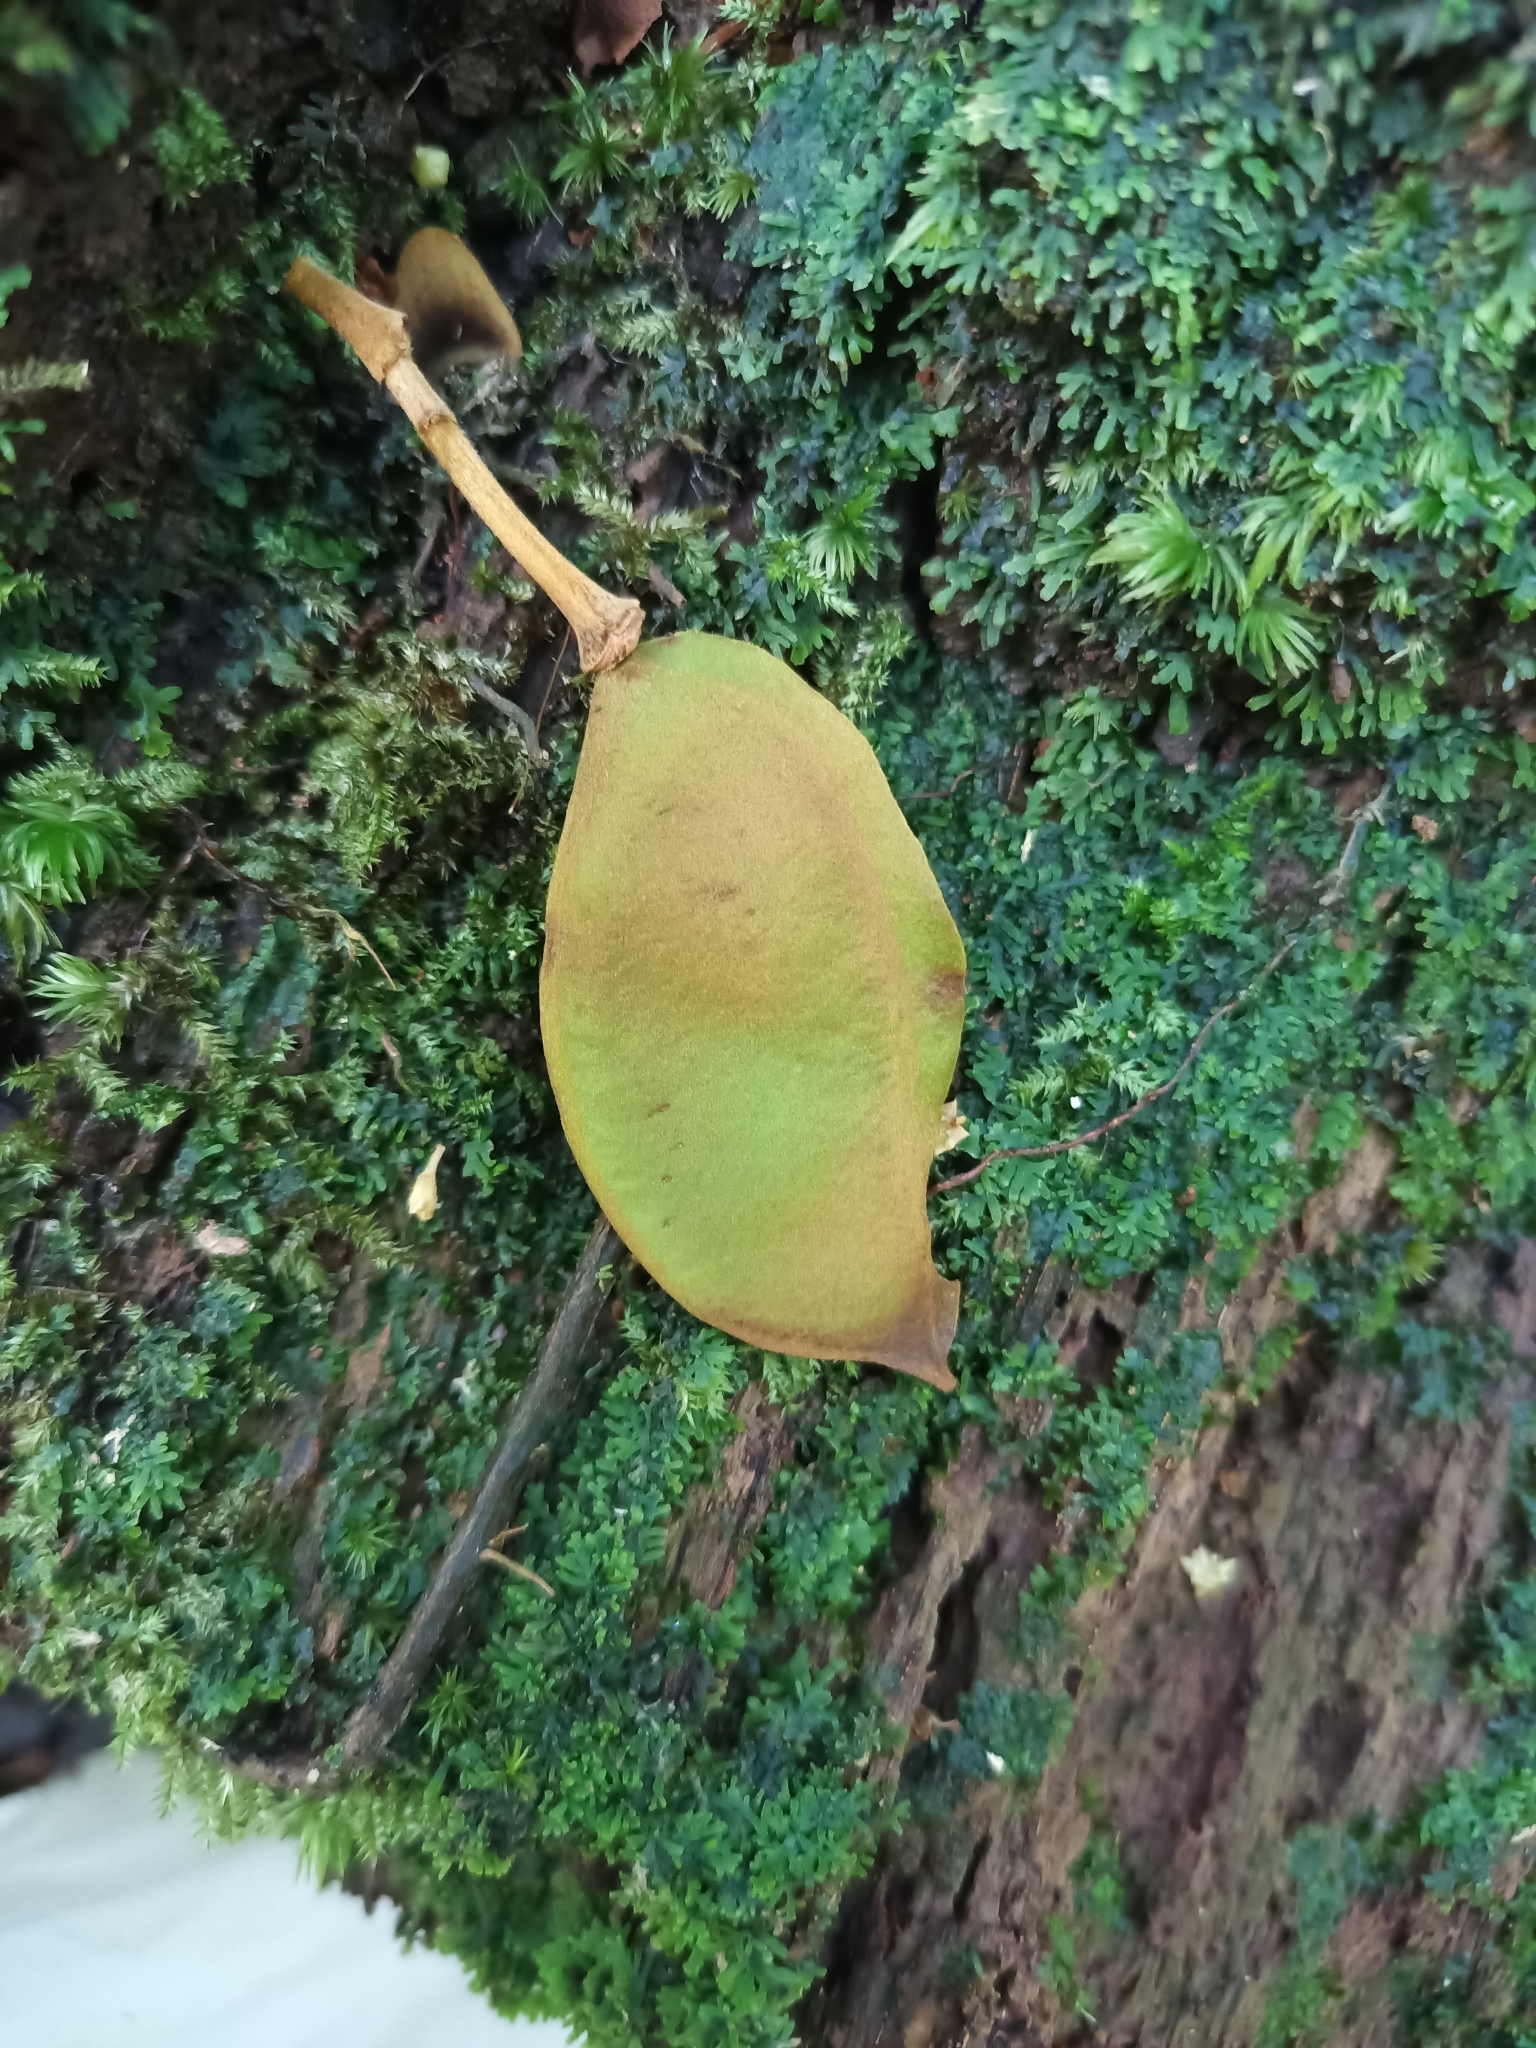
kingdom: Plantae
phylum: Tracheophyta
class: Magnoliopsida
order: Fabales
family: Fabaceae
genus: Dicorynia
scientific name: Dicorynia guianensis
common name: Basralocus
